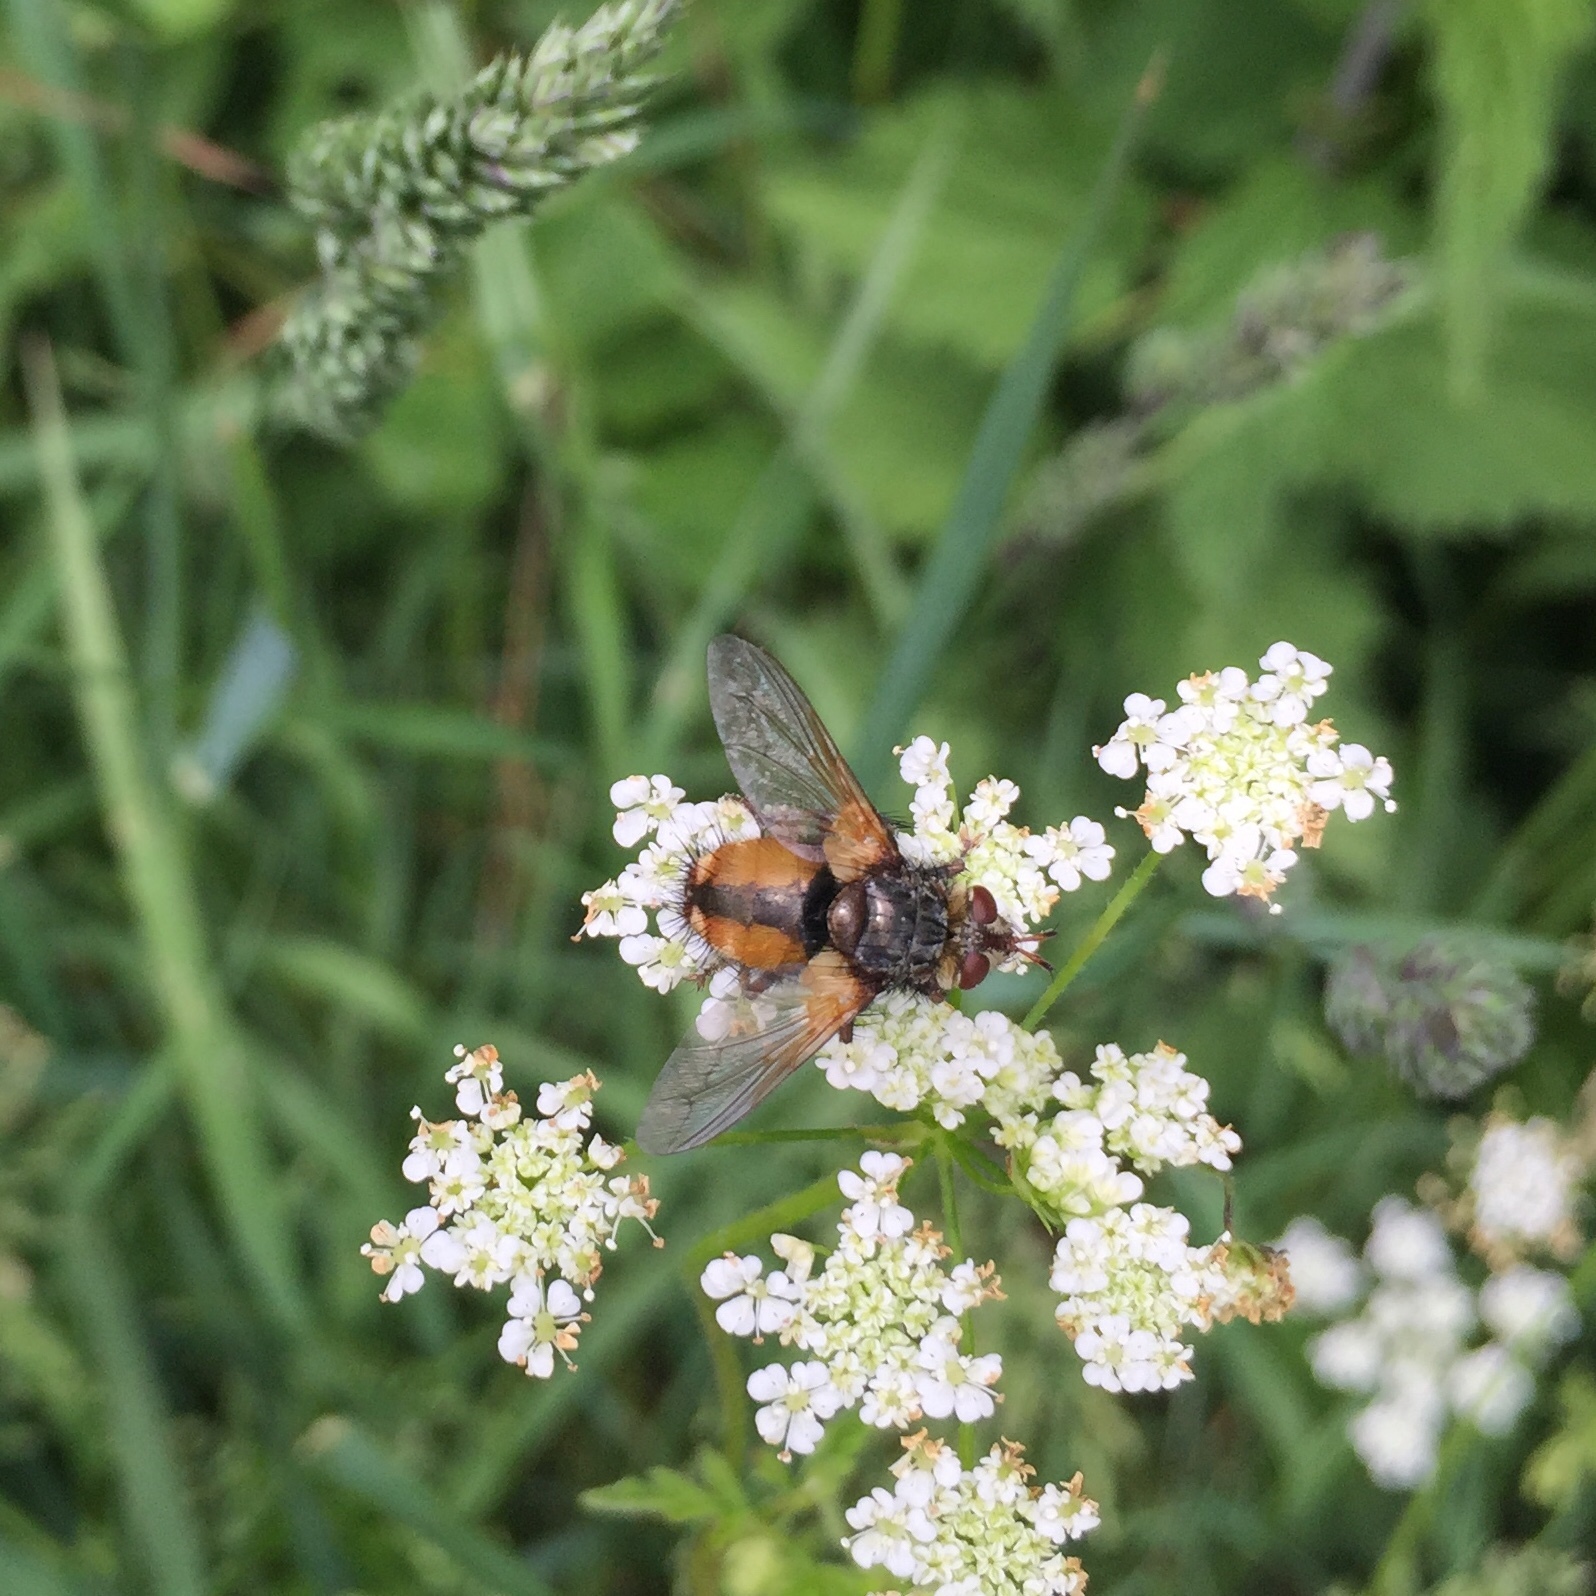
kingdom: Animalia
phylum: Arthropoda
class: Insecta
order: Diptera
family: Tachinidae
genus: Tachina
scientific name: Tachina fera
